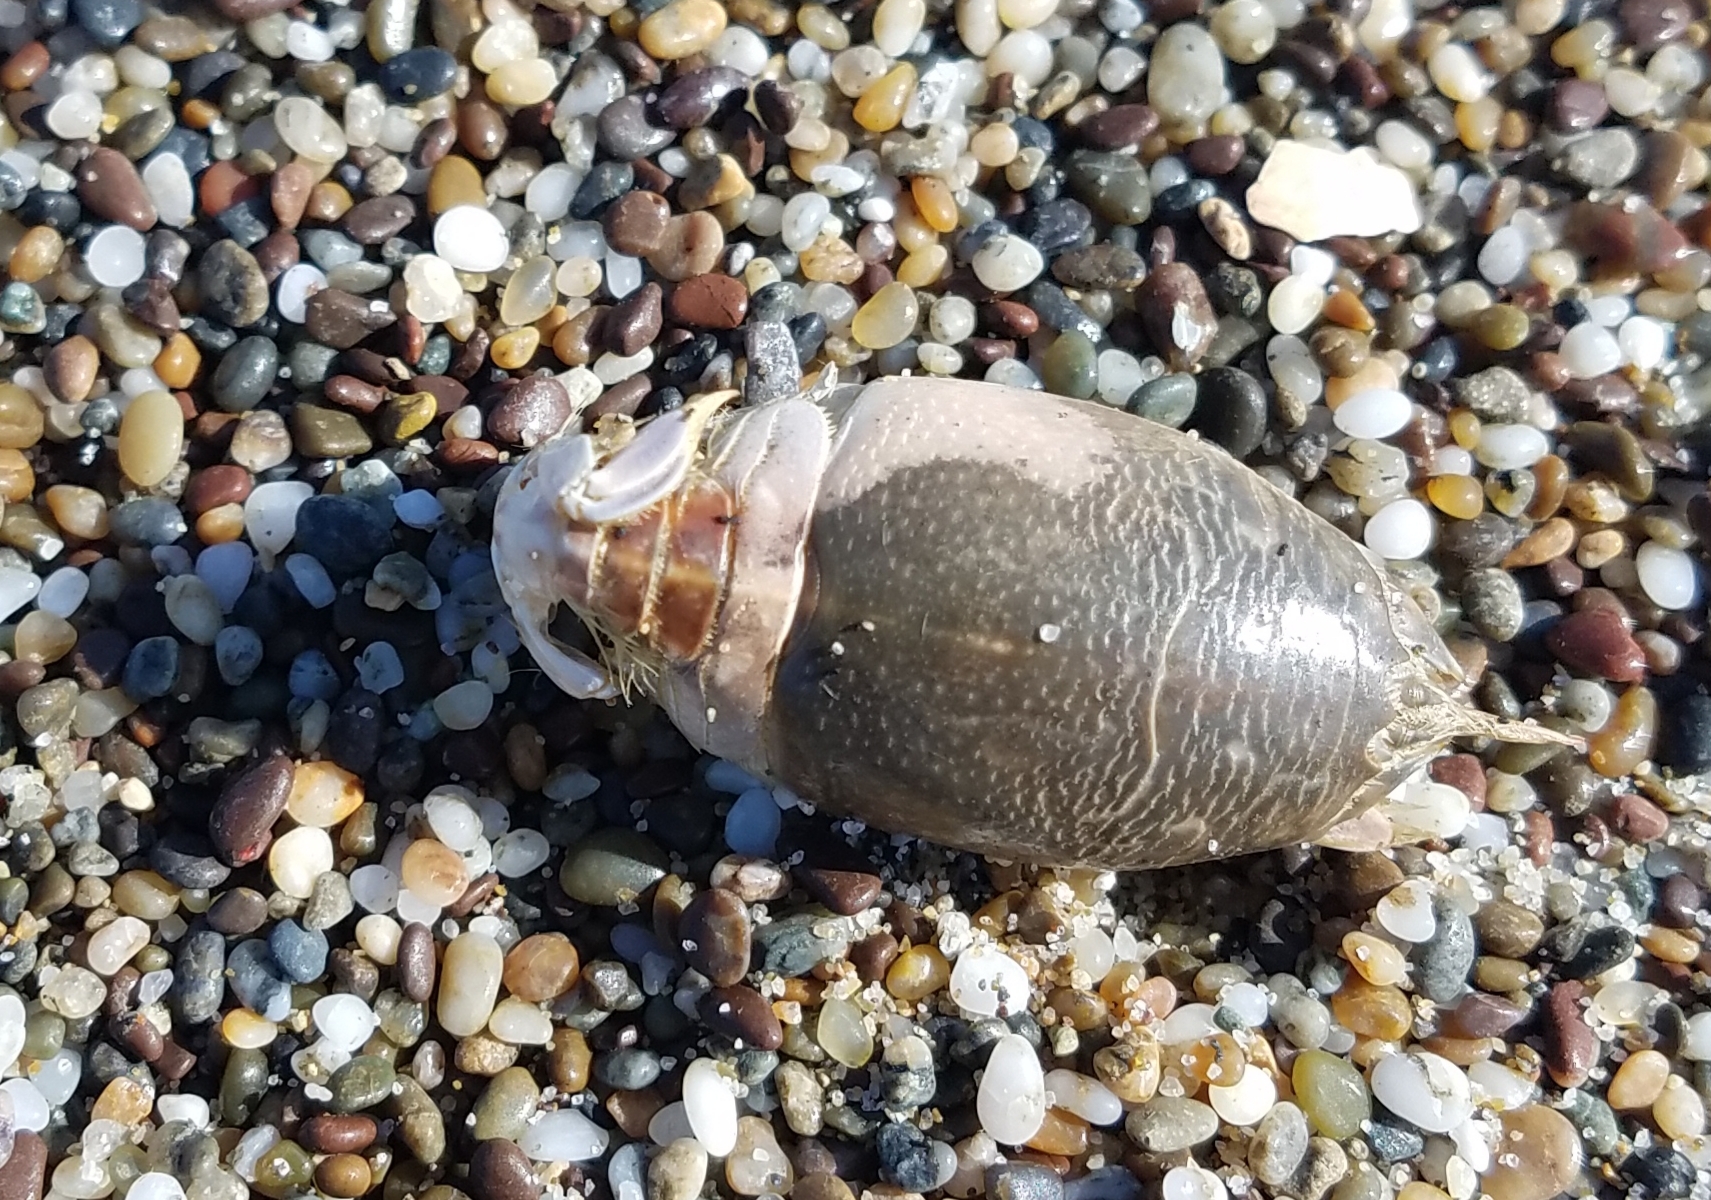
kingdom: Animalia
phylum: Arthropoda
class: Malacostraca
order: Decapoda
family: Hippidae
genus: Emerita
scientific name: Emerita analoga
